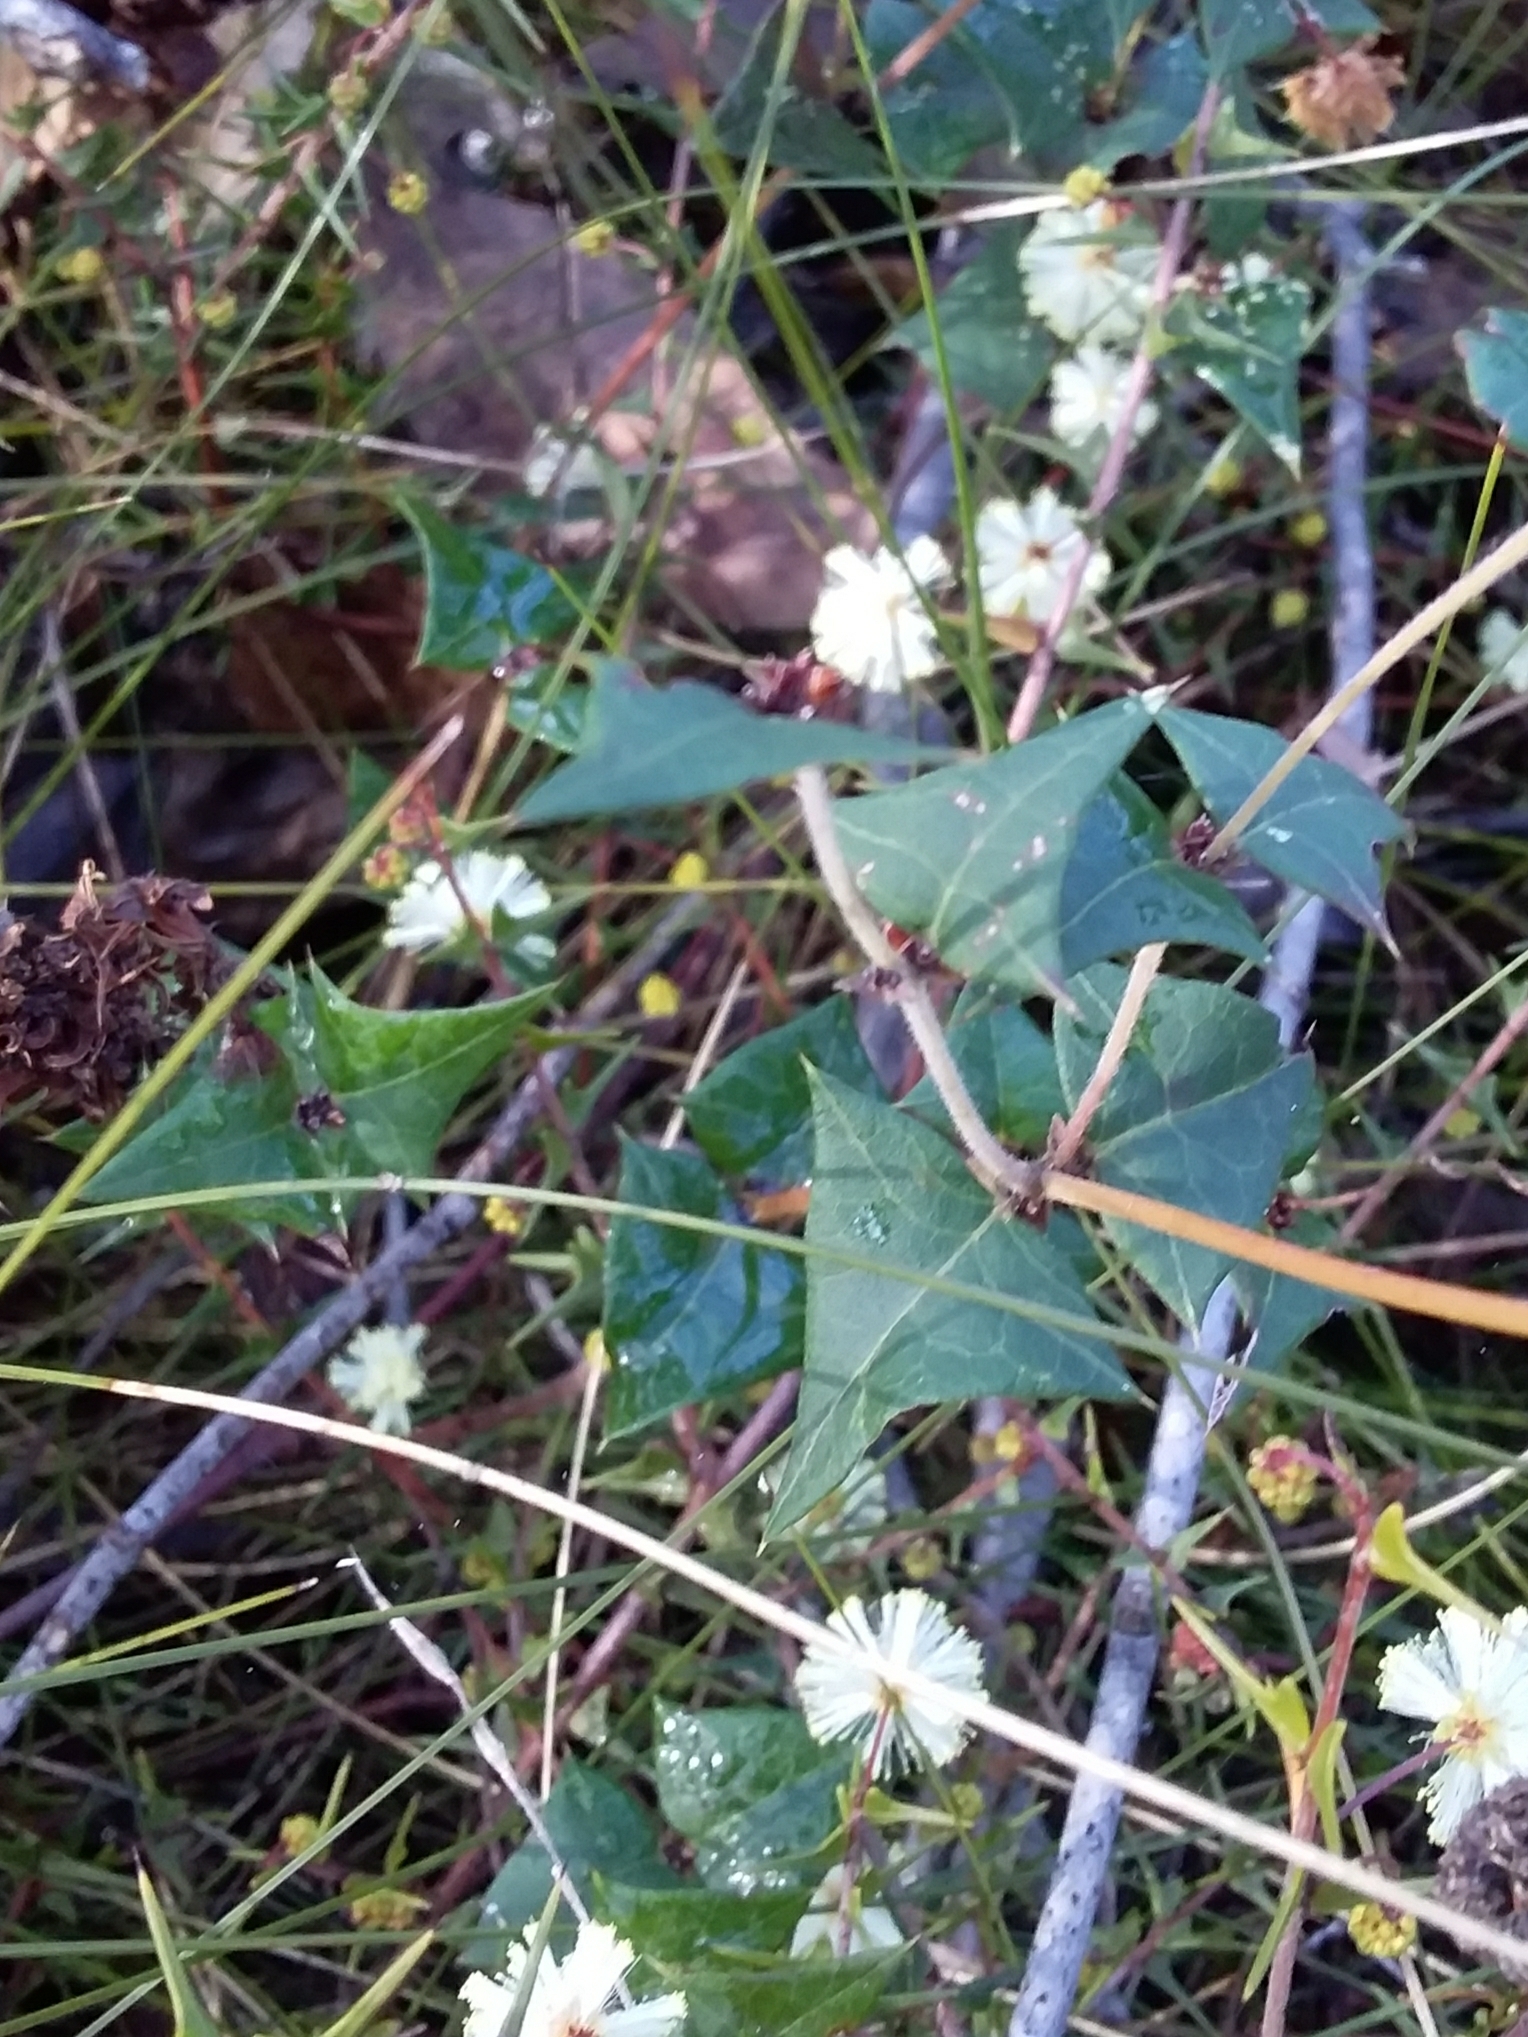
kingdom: Plantae
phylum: Tracheophyta
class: Magnoliopsida
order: Fabales
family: Fabaceae
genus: Platylobium
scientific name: Platylobium obtusangulum
